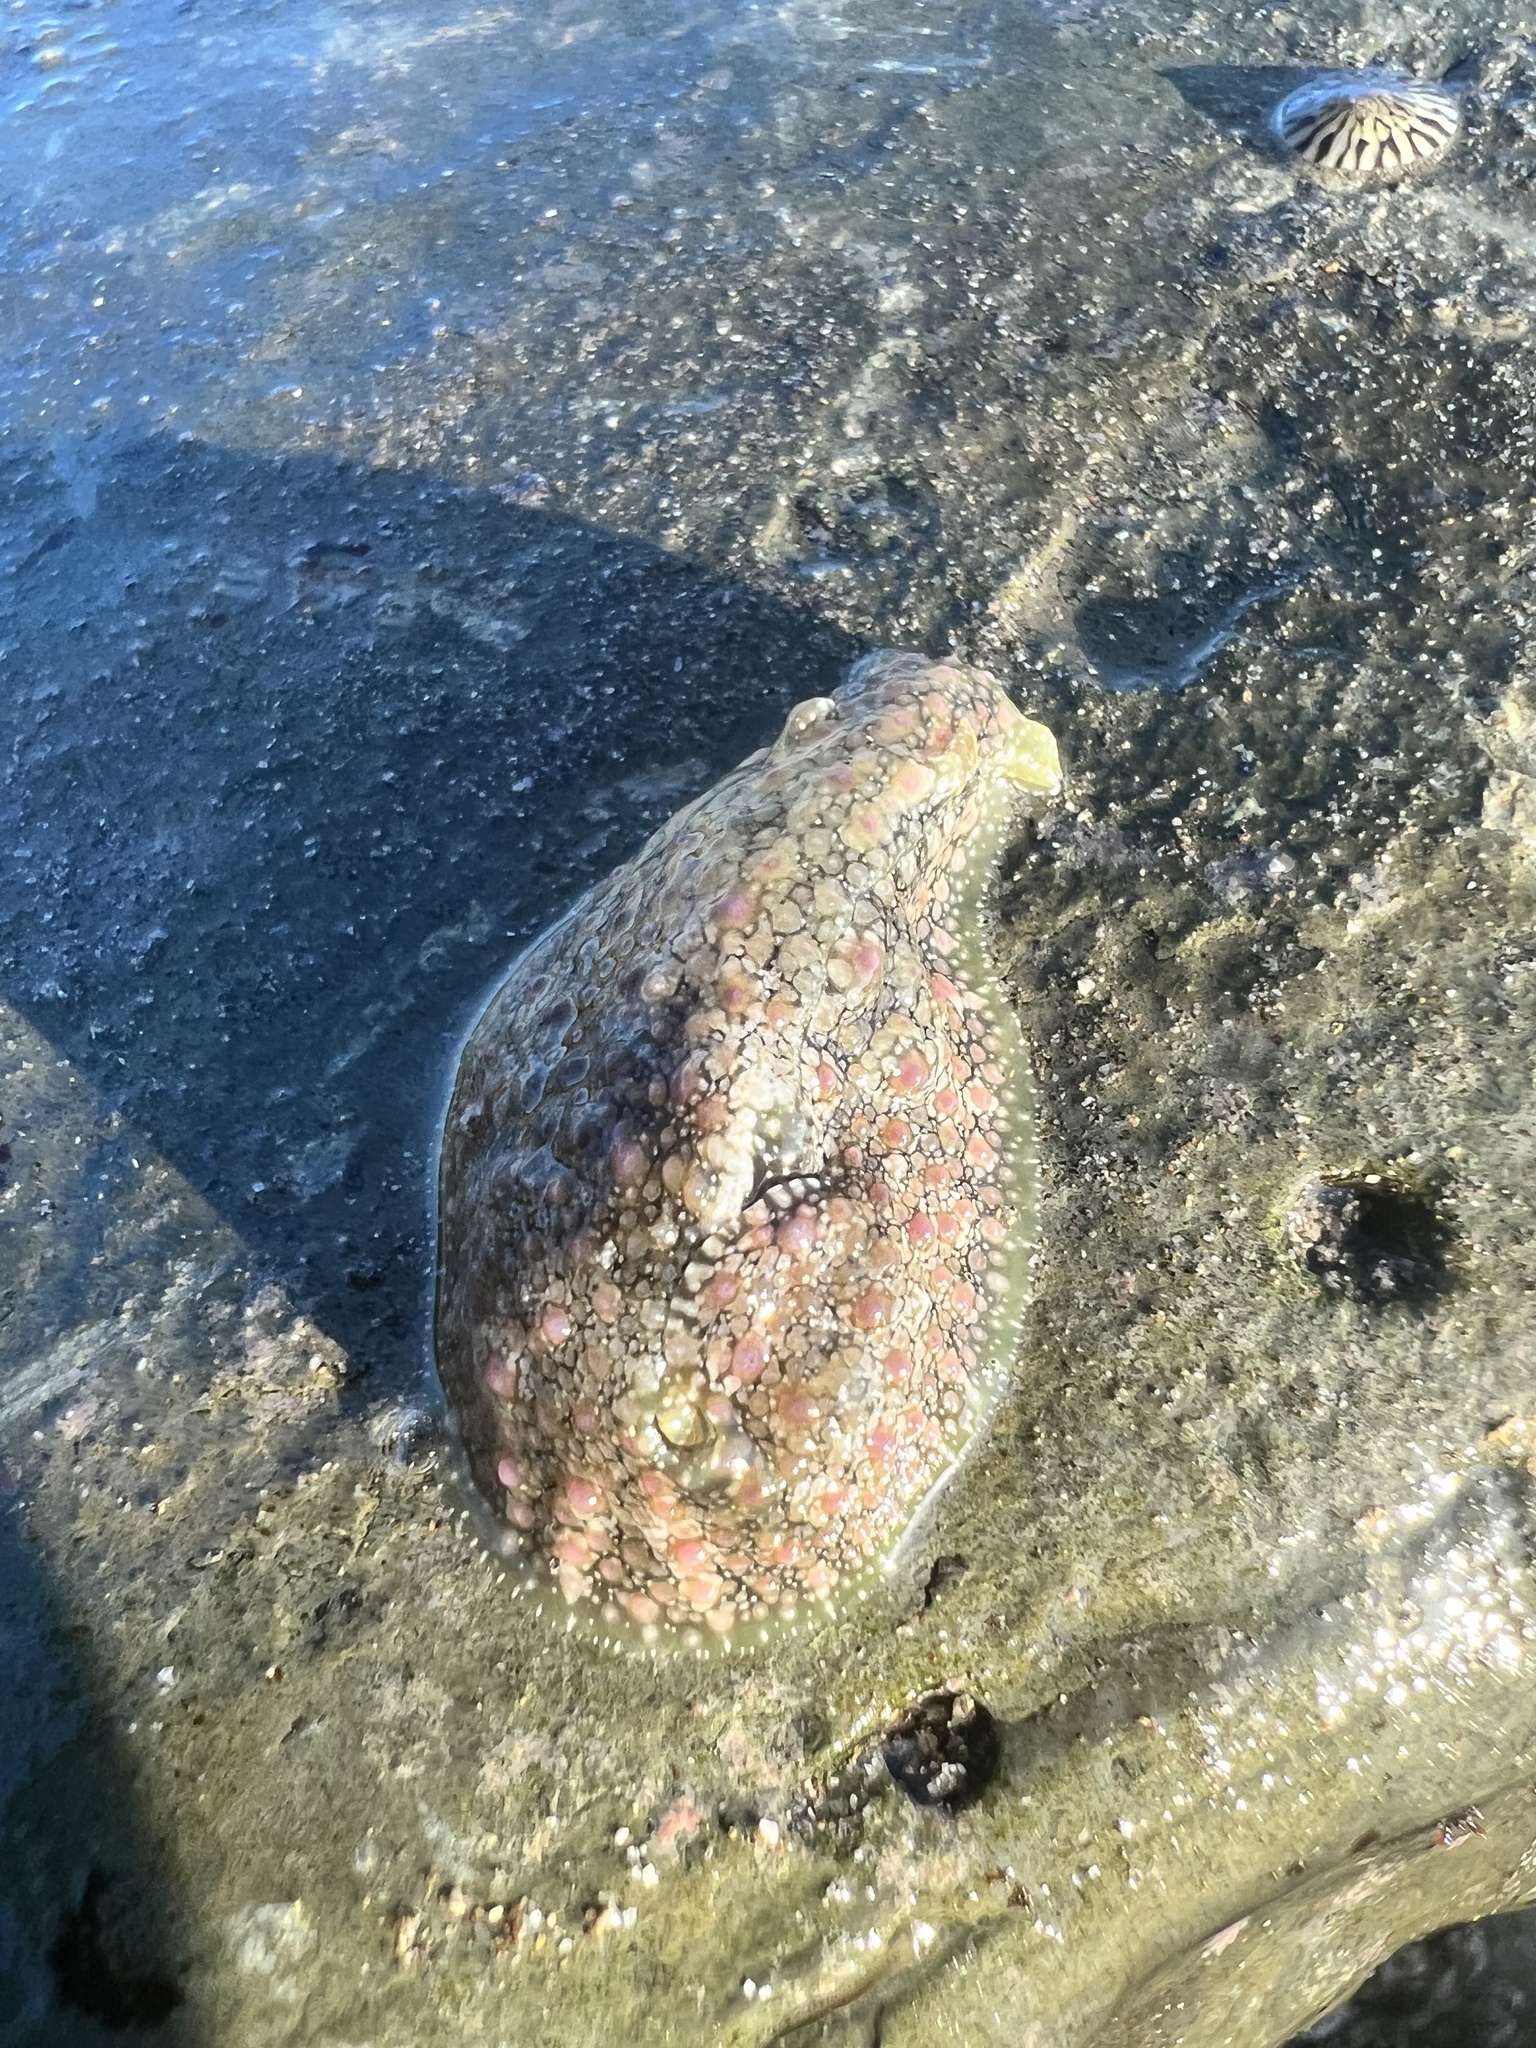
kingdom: Animalia
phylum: Mollusca
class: Gastropoda
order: Aplysiida
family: Aplysiidae
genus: Dolabrifera
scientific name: Dolabrifera nicaraguana
